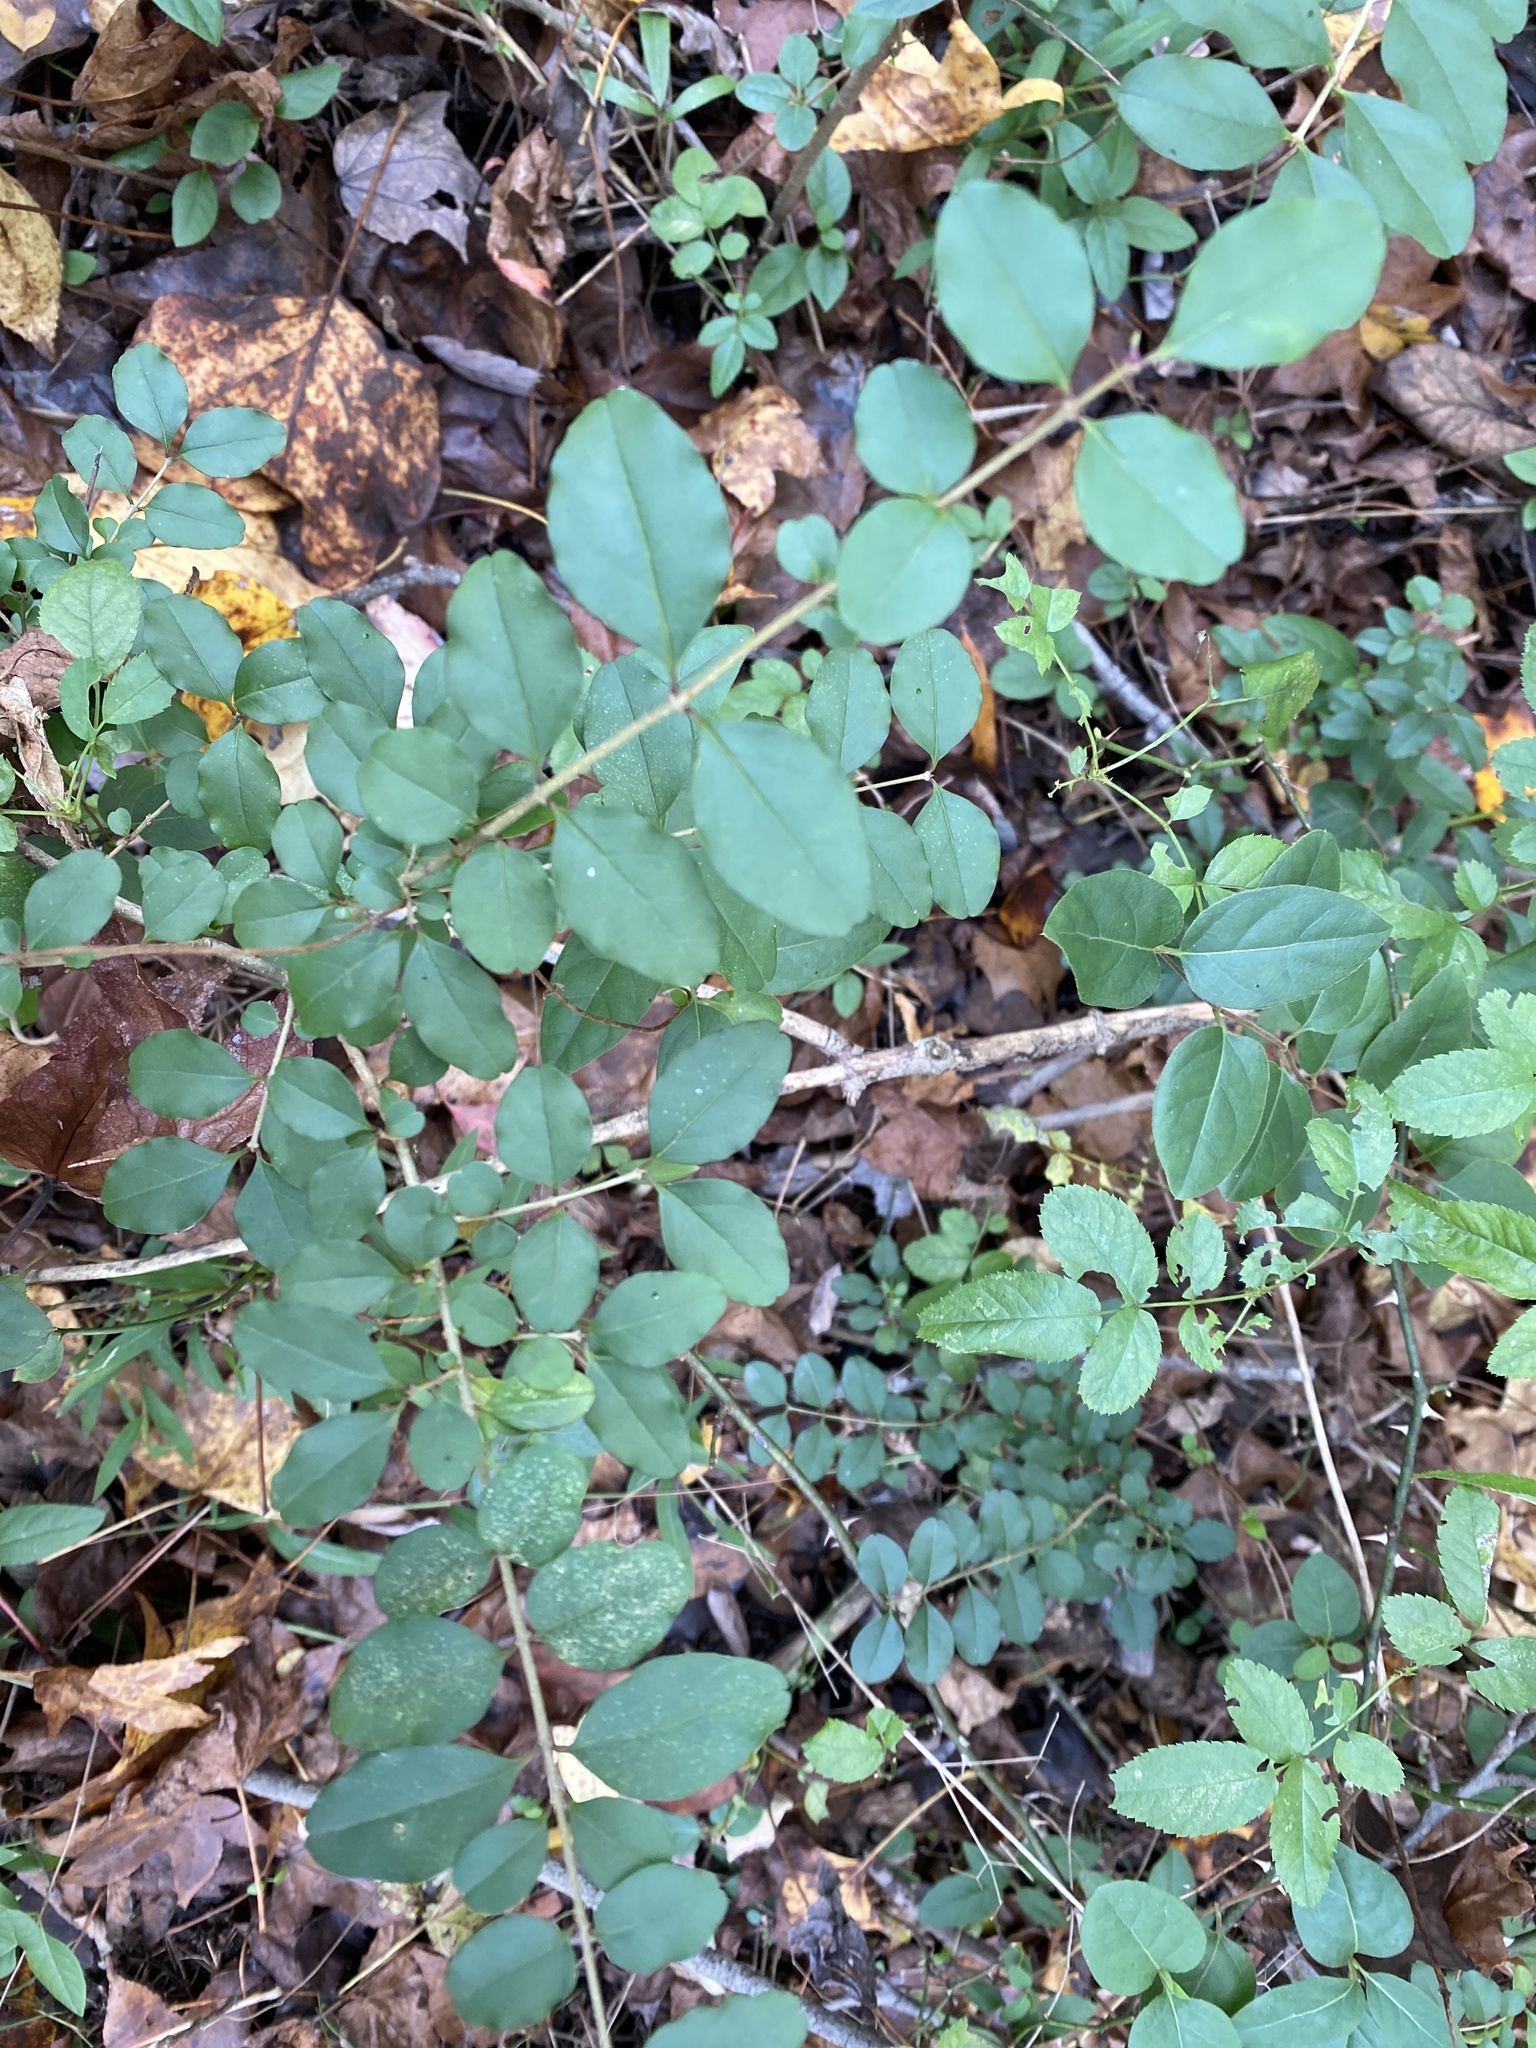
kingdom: Plantae
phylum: Tracheophyta
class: Magnoliopsida
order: Lamiales
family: Oleaceae
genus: Ligustrum
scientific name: Ligustrum sinense
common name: Chinese privet
